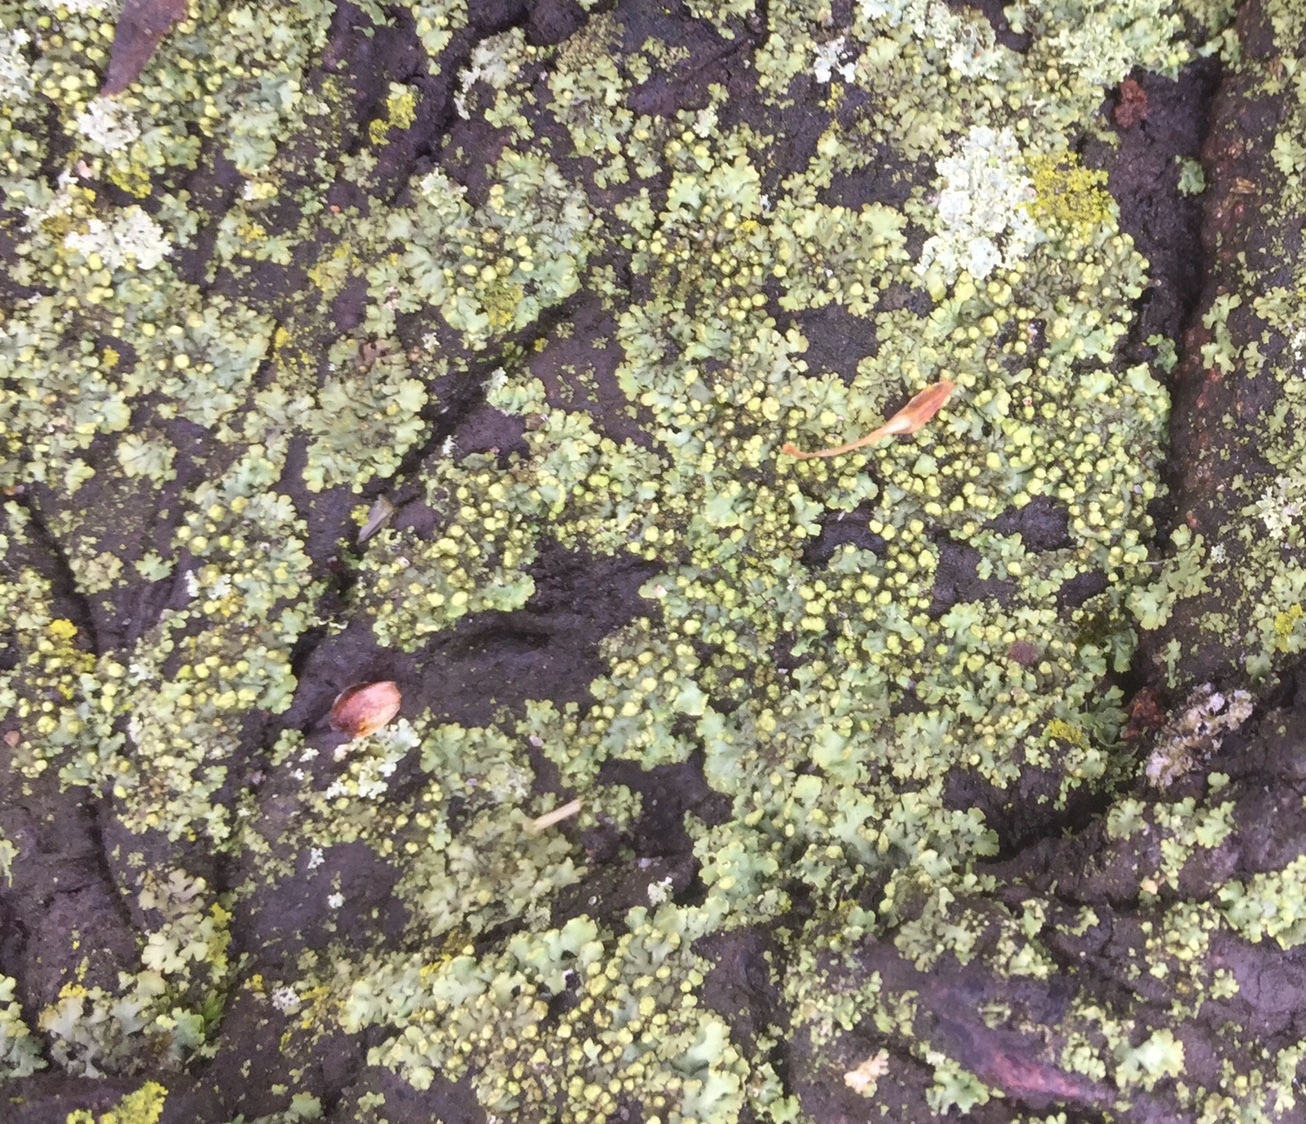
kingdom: Fungi
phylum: Ascomycota
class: Lecanoromycetes
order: Caliciales
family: Physciaceae
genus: Phaeophyscia
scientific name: Phaeophyscia pusilloides
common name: Pom-pom shadow lichen
